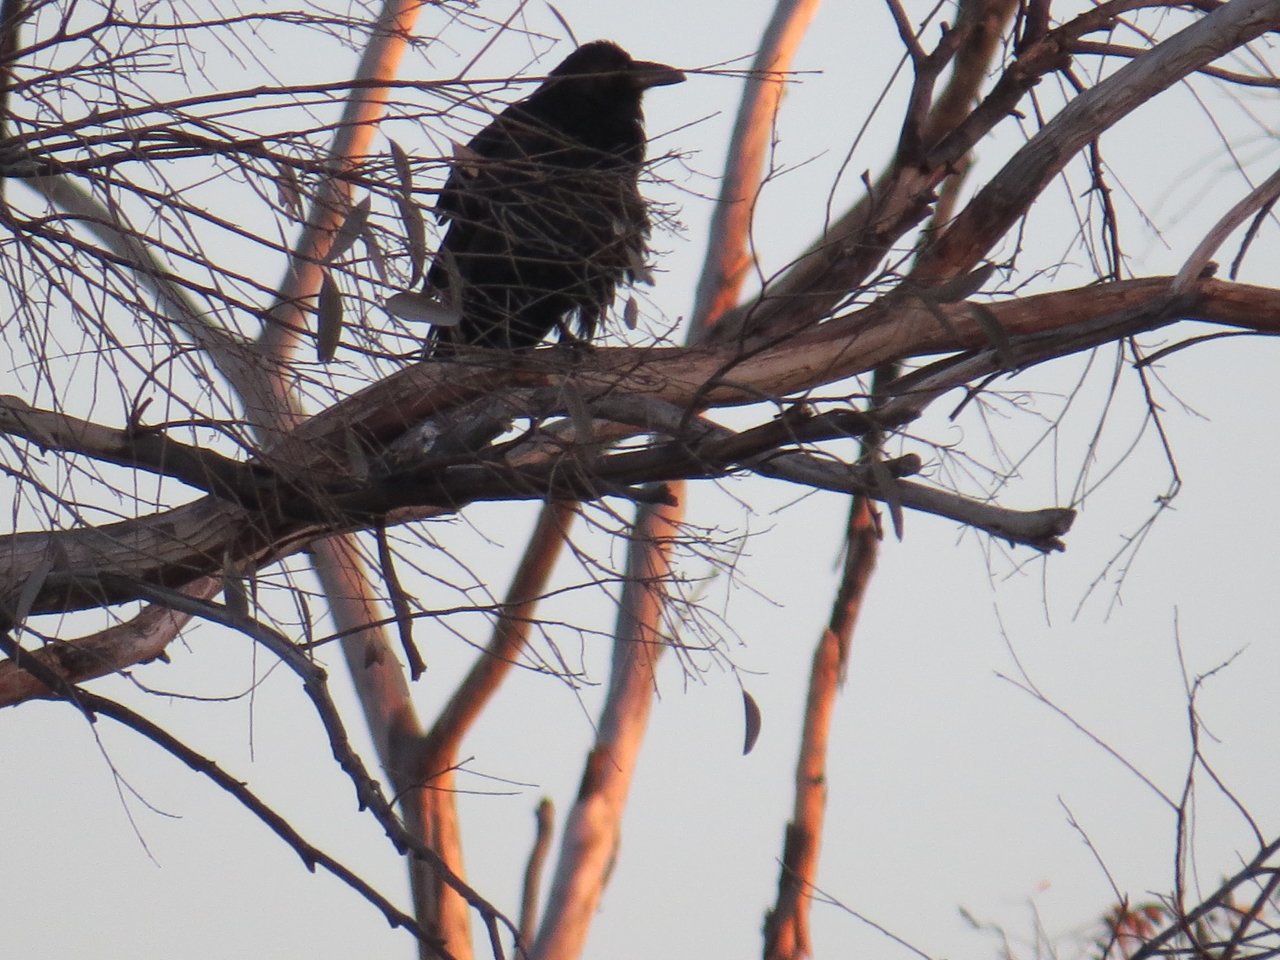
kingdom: Animalia
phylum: Chordata
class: Aves
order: Passeriformes
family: Corvidae
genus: Corvus
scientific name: Corvus corax
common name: Common raven
